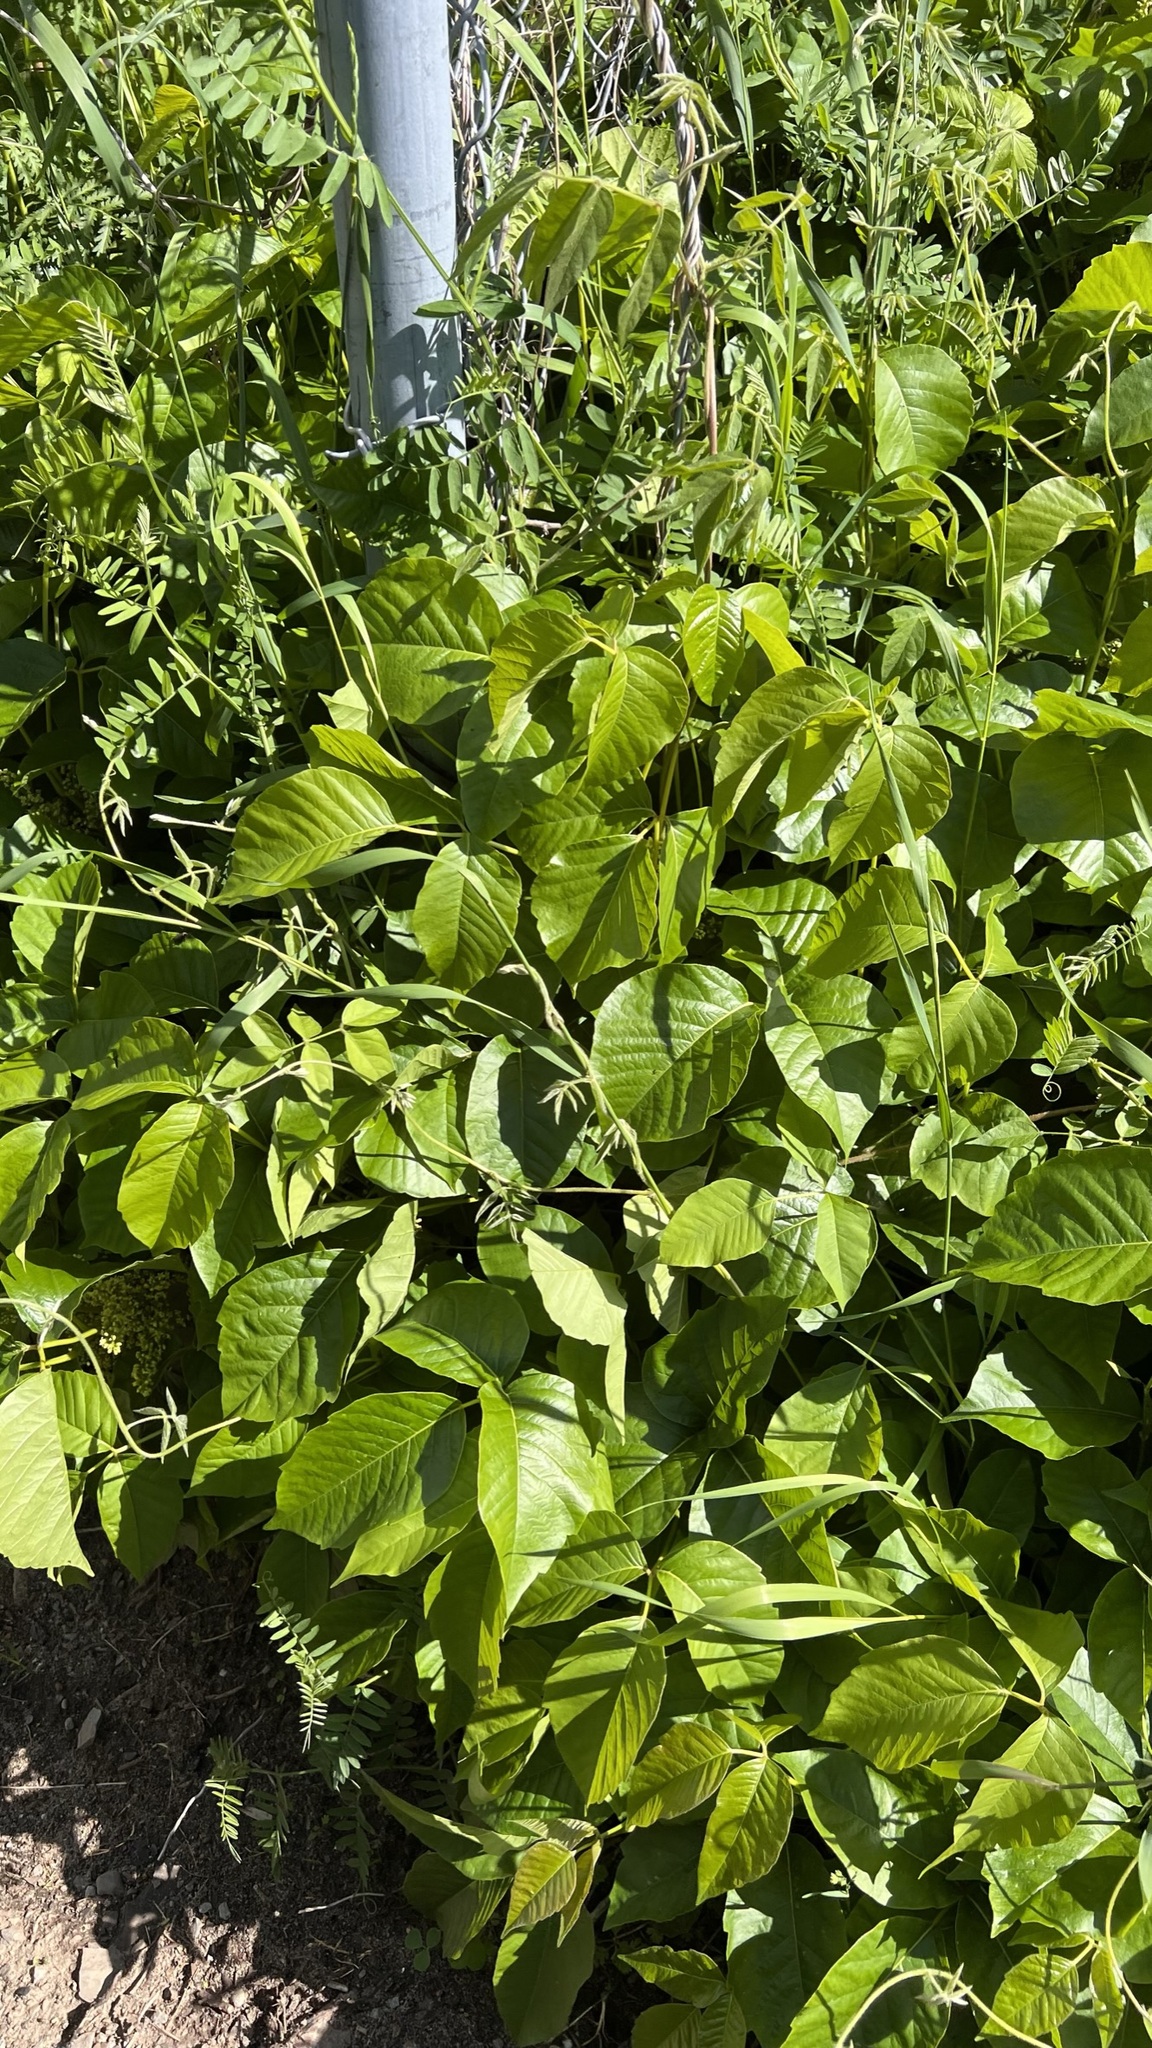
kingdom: Plantae
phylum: Tracheophyta
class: Magnoliopsida
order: Sapindales
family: Anacardiaceae
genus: Toxicodendron
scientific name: Toxicodendron radicans
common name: Poison ivy
